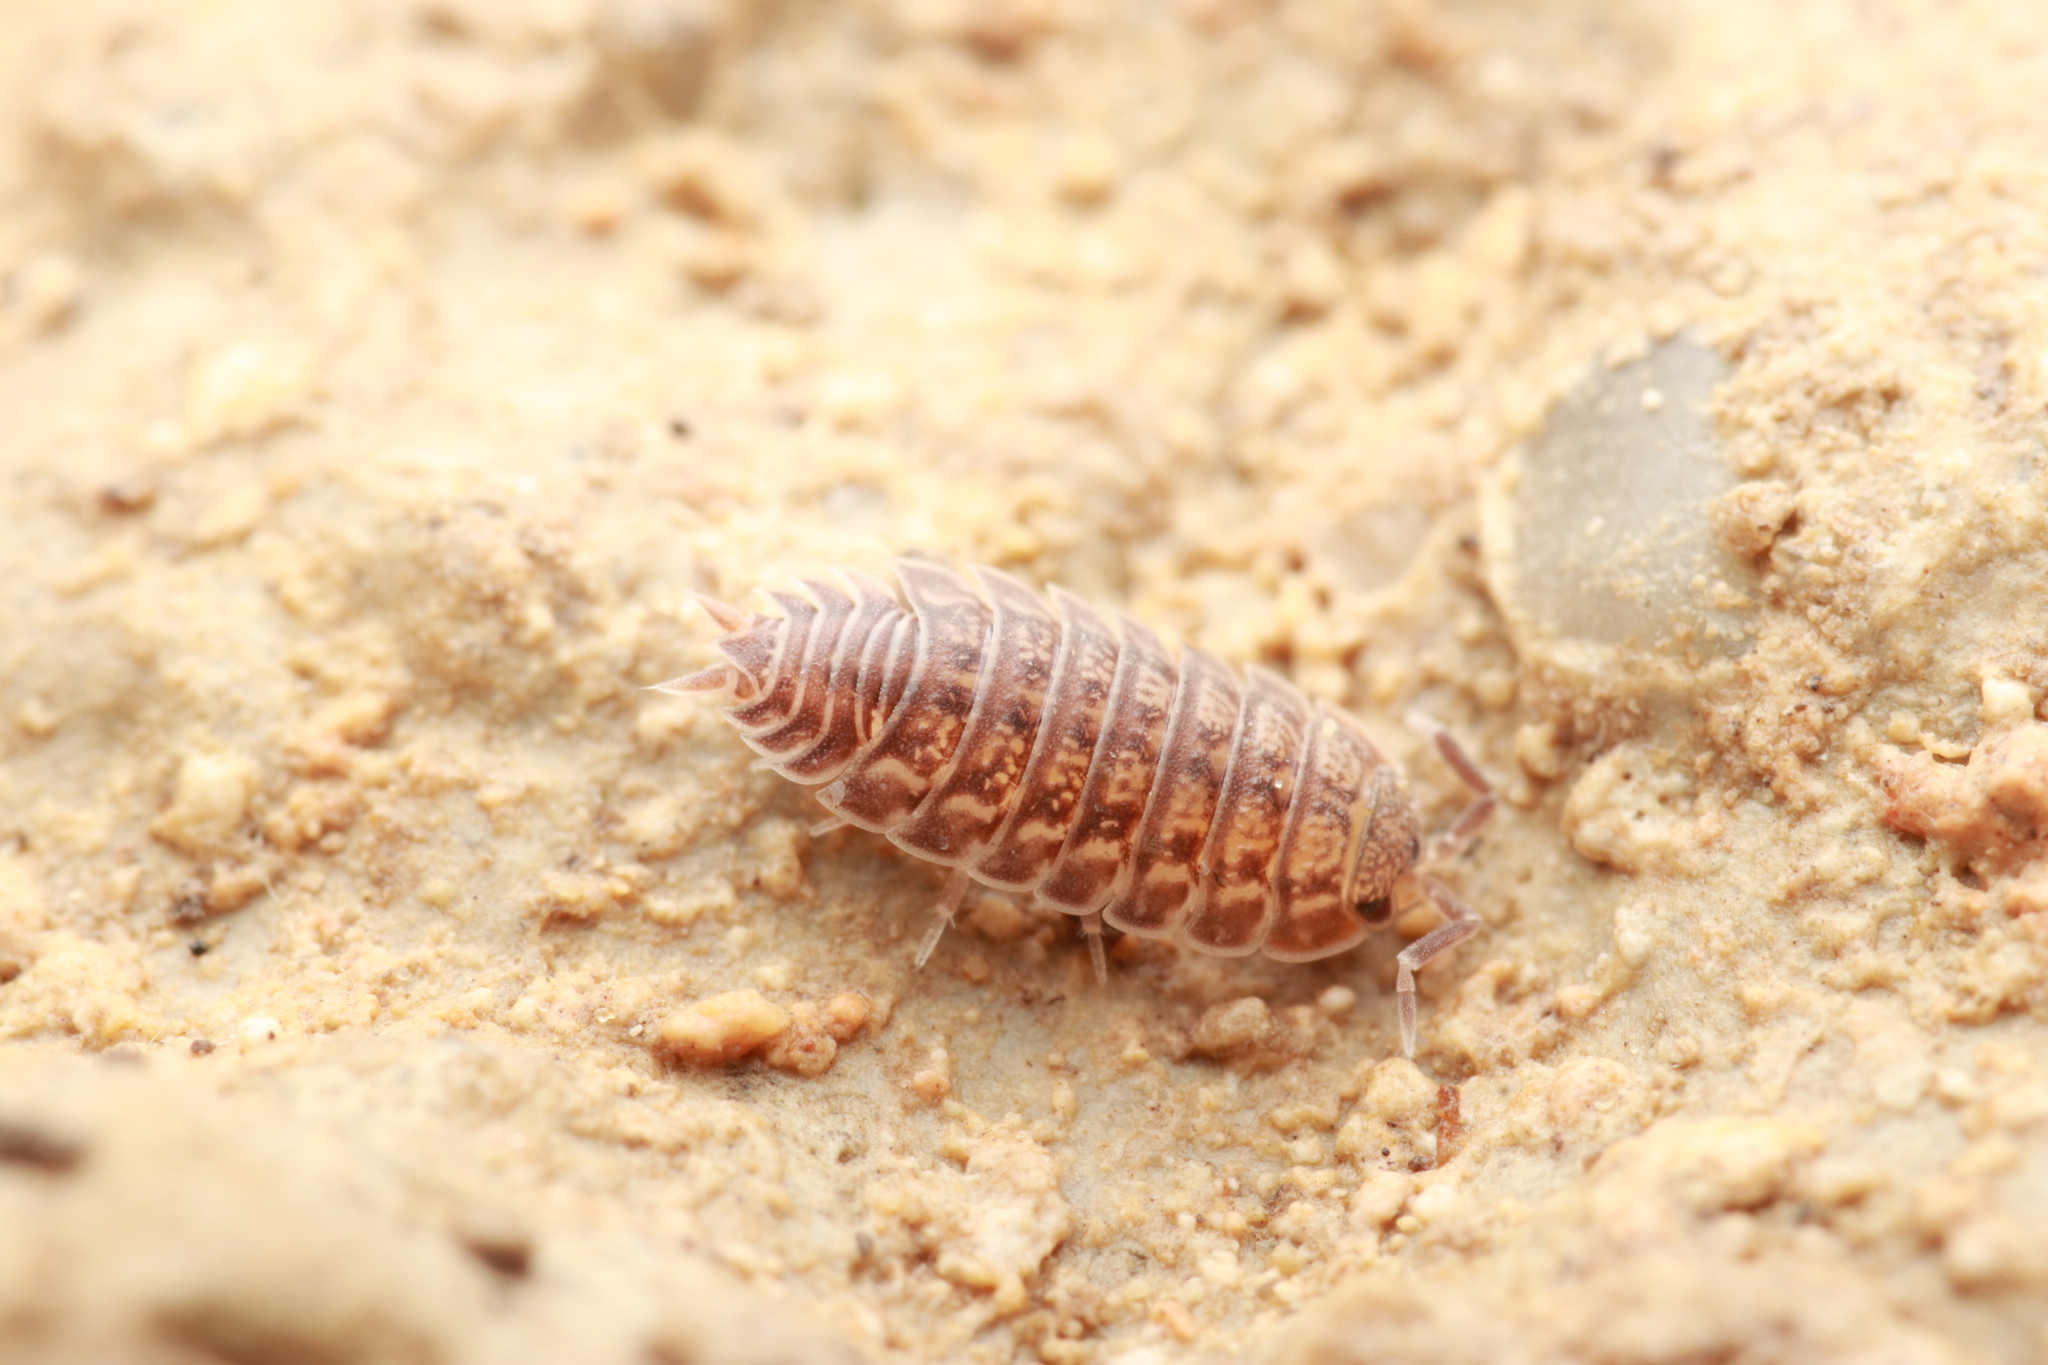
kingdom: Animalia
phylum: Arthropoda
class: Malacostraca
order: Isopoda
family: Porcellionidae
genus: Lucasius
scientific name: Lucasius pallidus
